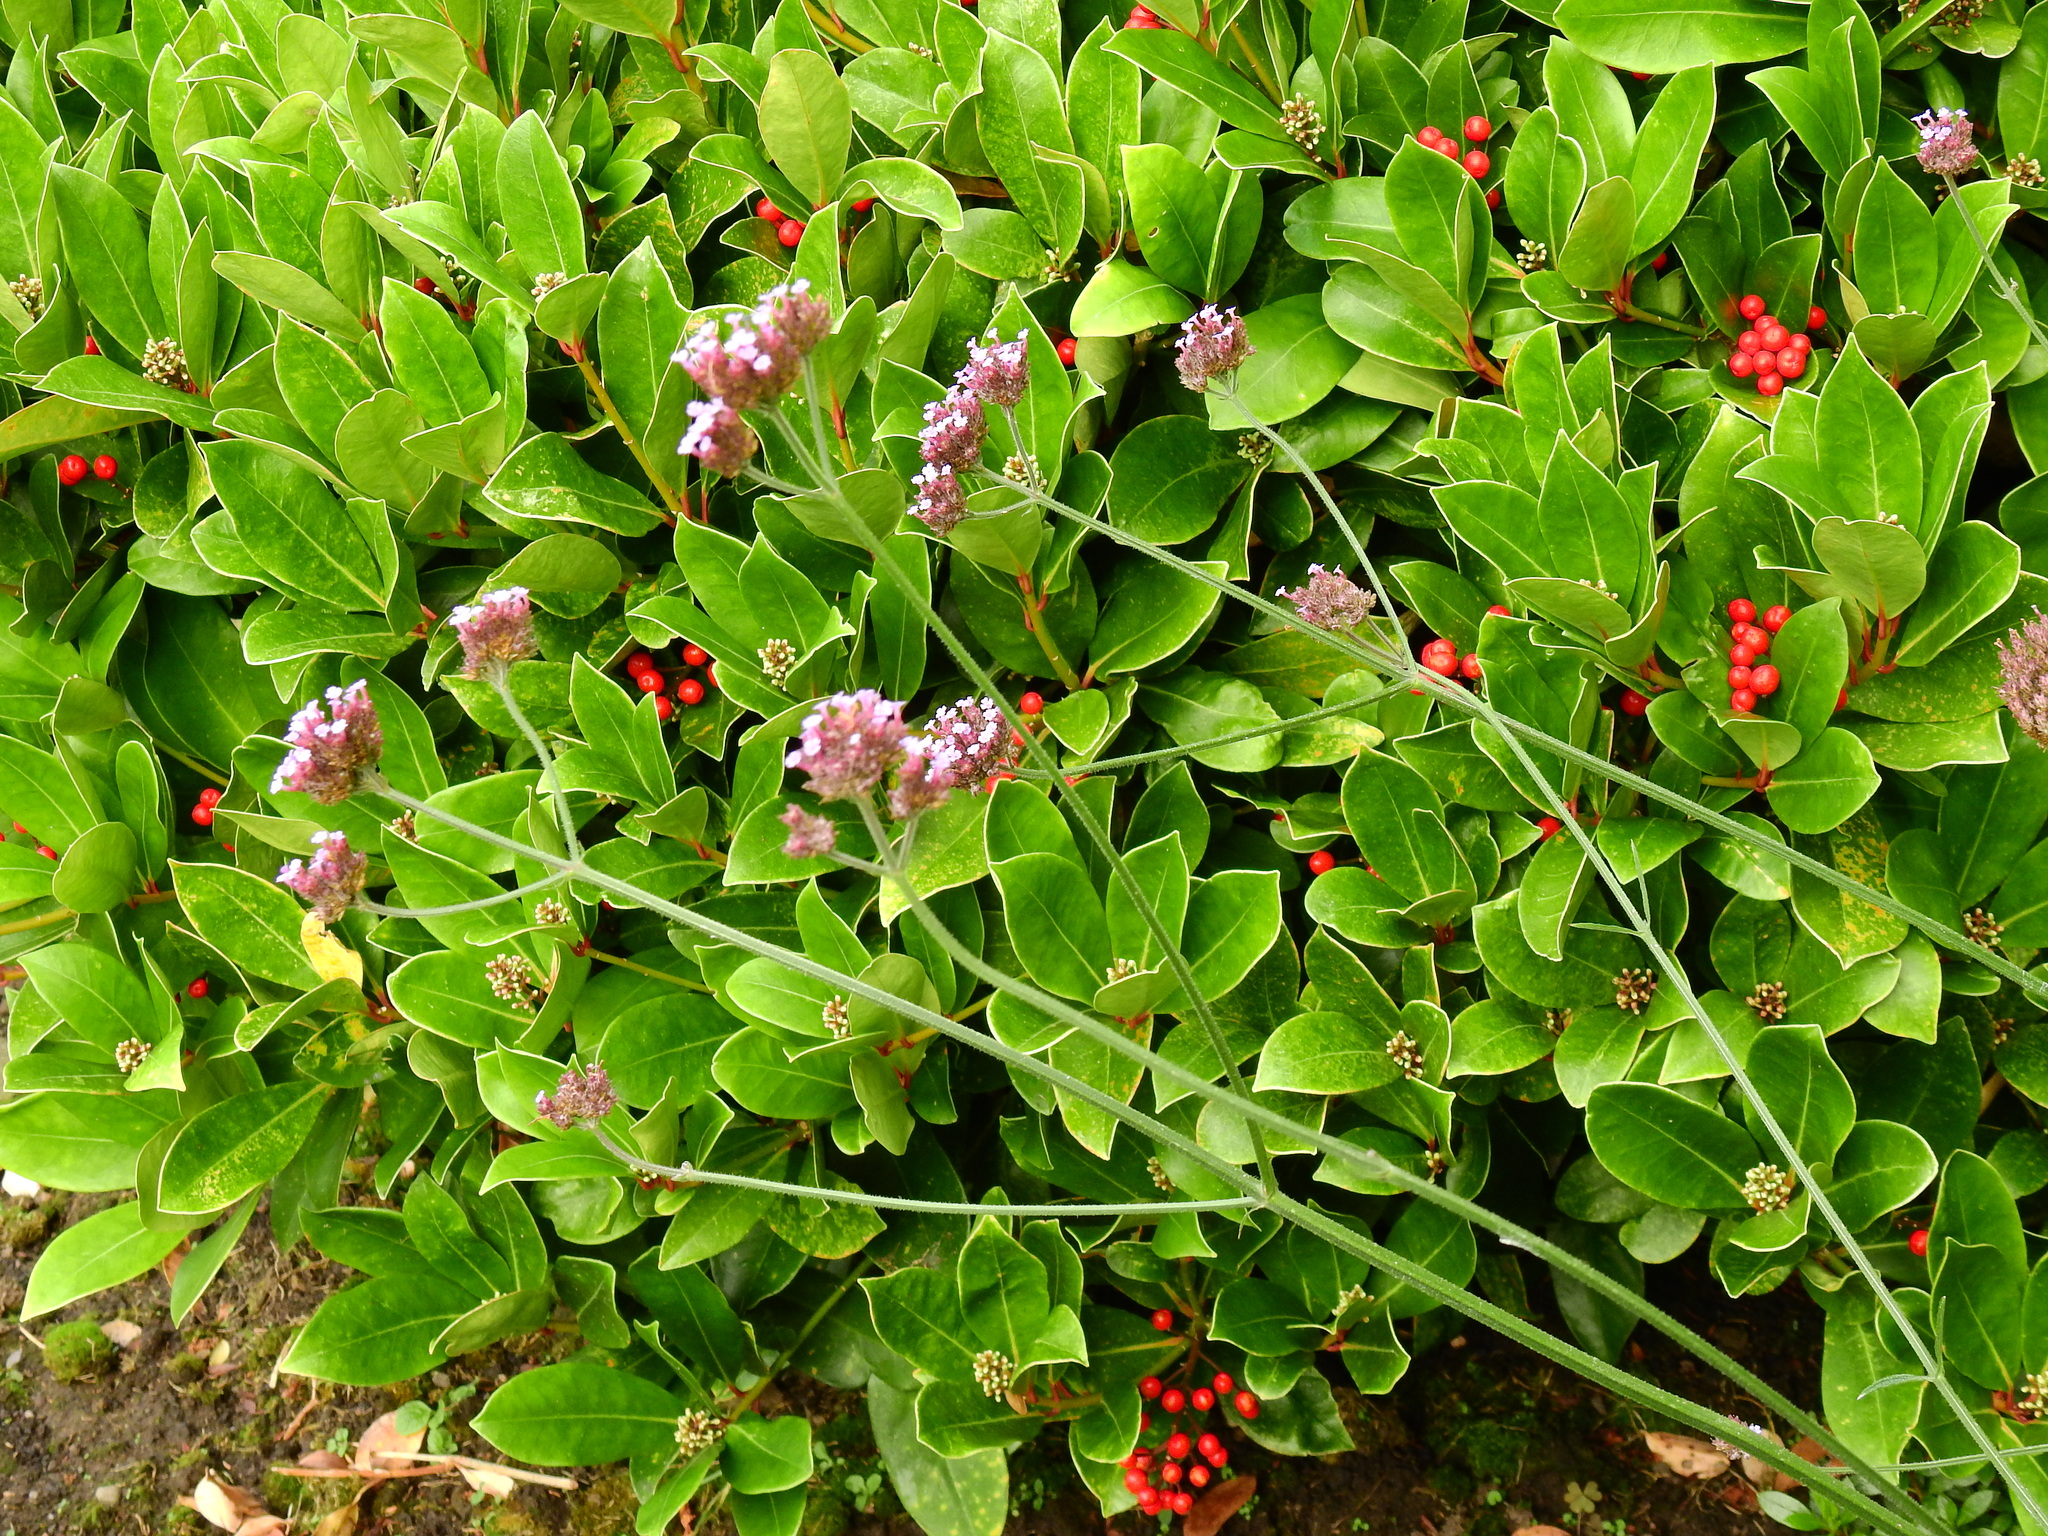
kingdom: Plantae
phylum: Tracheophyta
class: Magnoliopsida
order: Lamiales
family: Verbenaceae
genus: Verbena
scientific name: Verbena bonariensis
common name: Purpletop vervain
